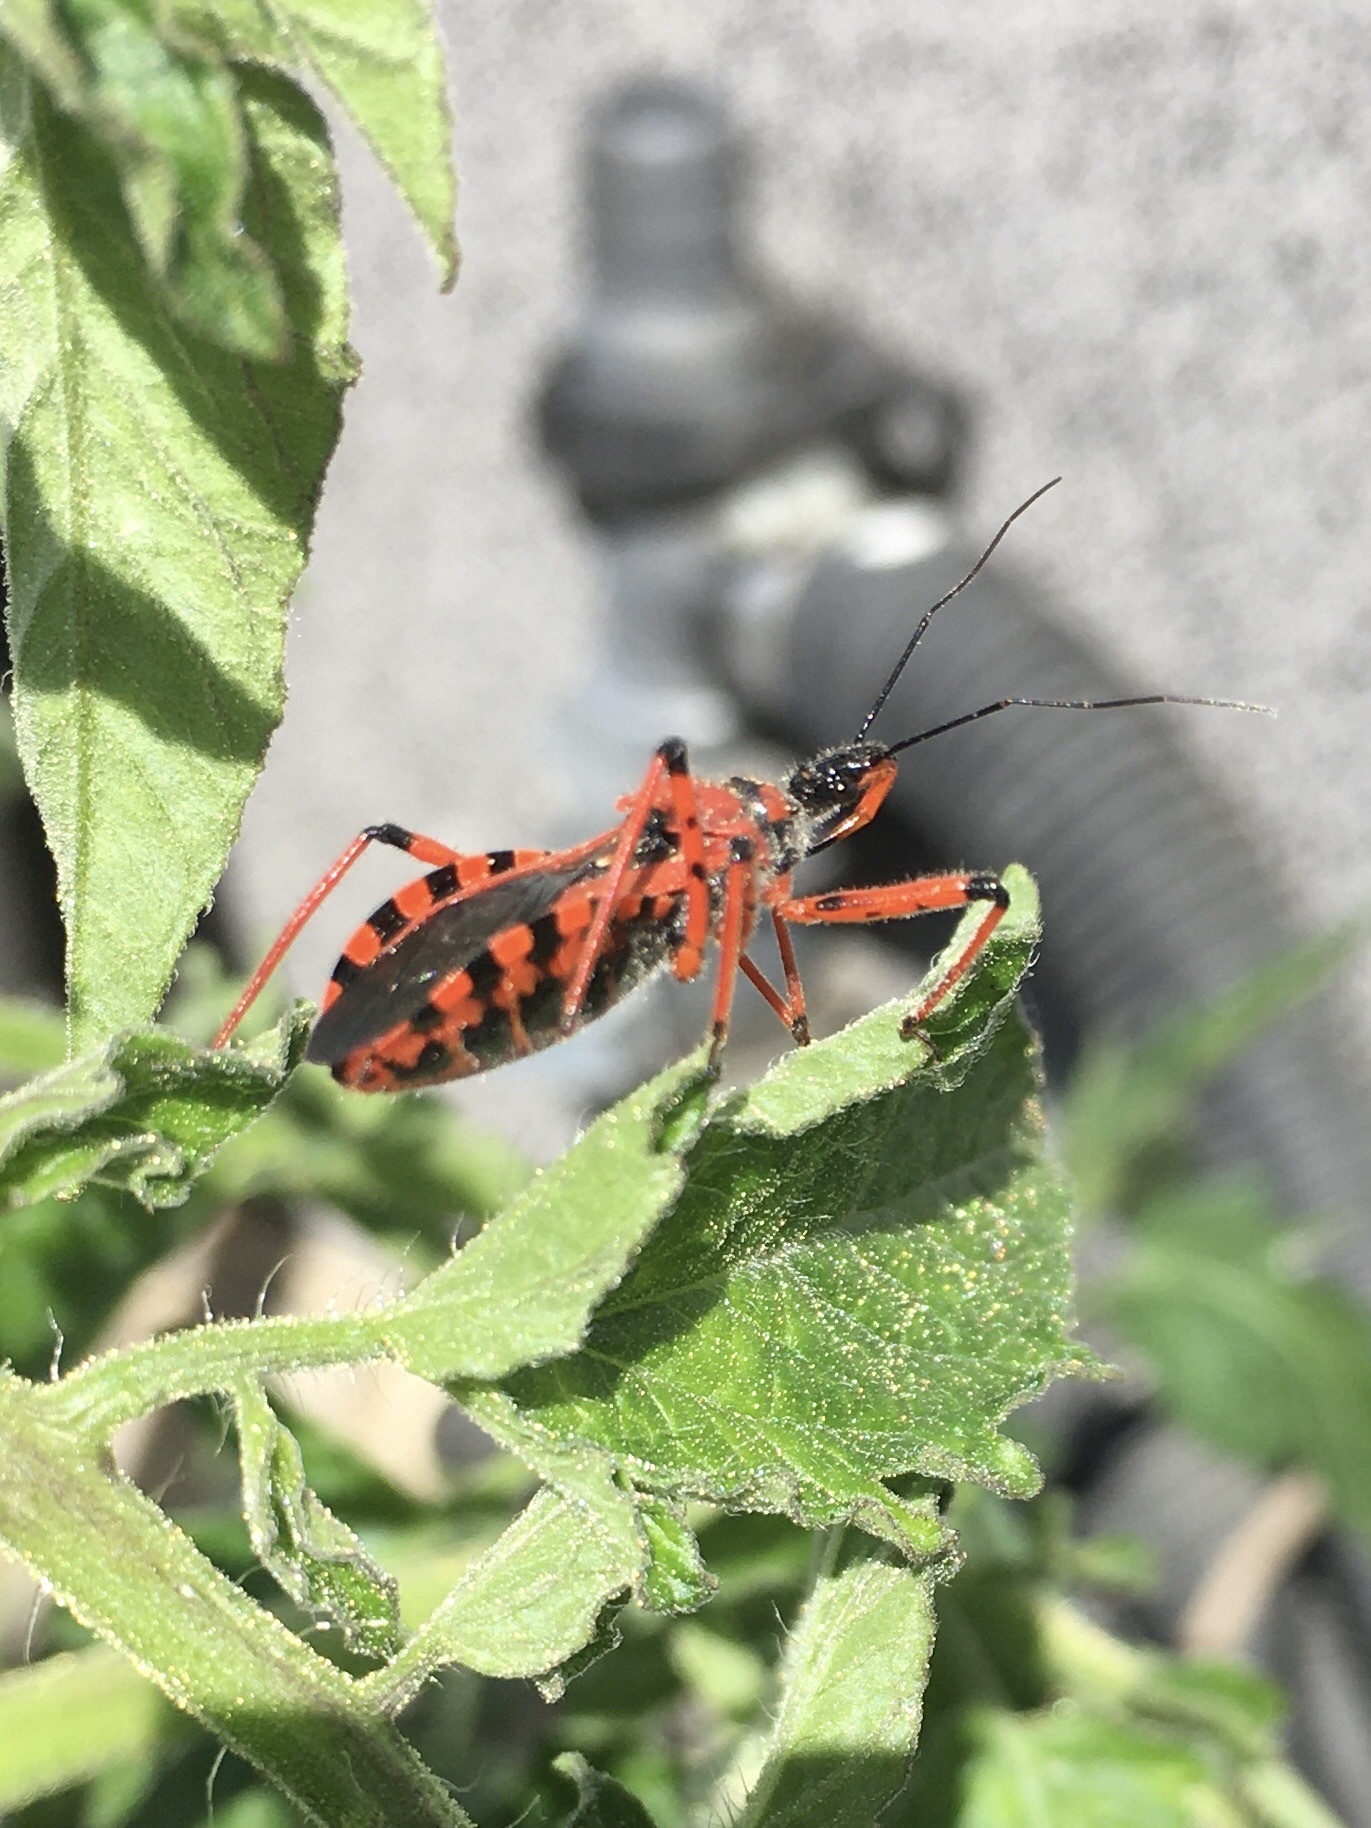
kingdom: Animalia
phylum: Arthropoda
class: Insecta
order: Hemiptera
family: Reduviidae
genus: Rhynocoris
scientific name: Rhynocoris iracundus
